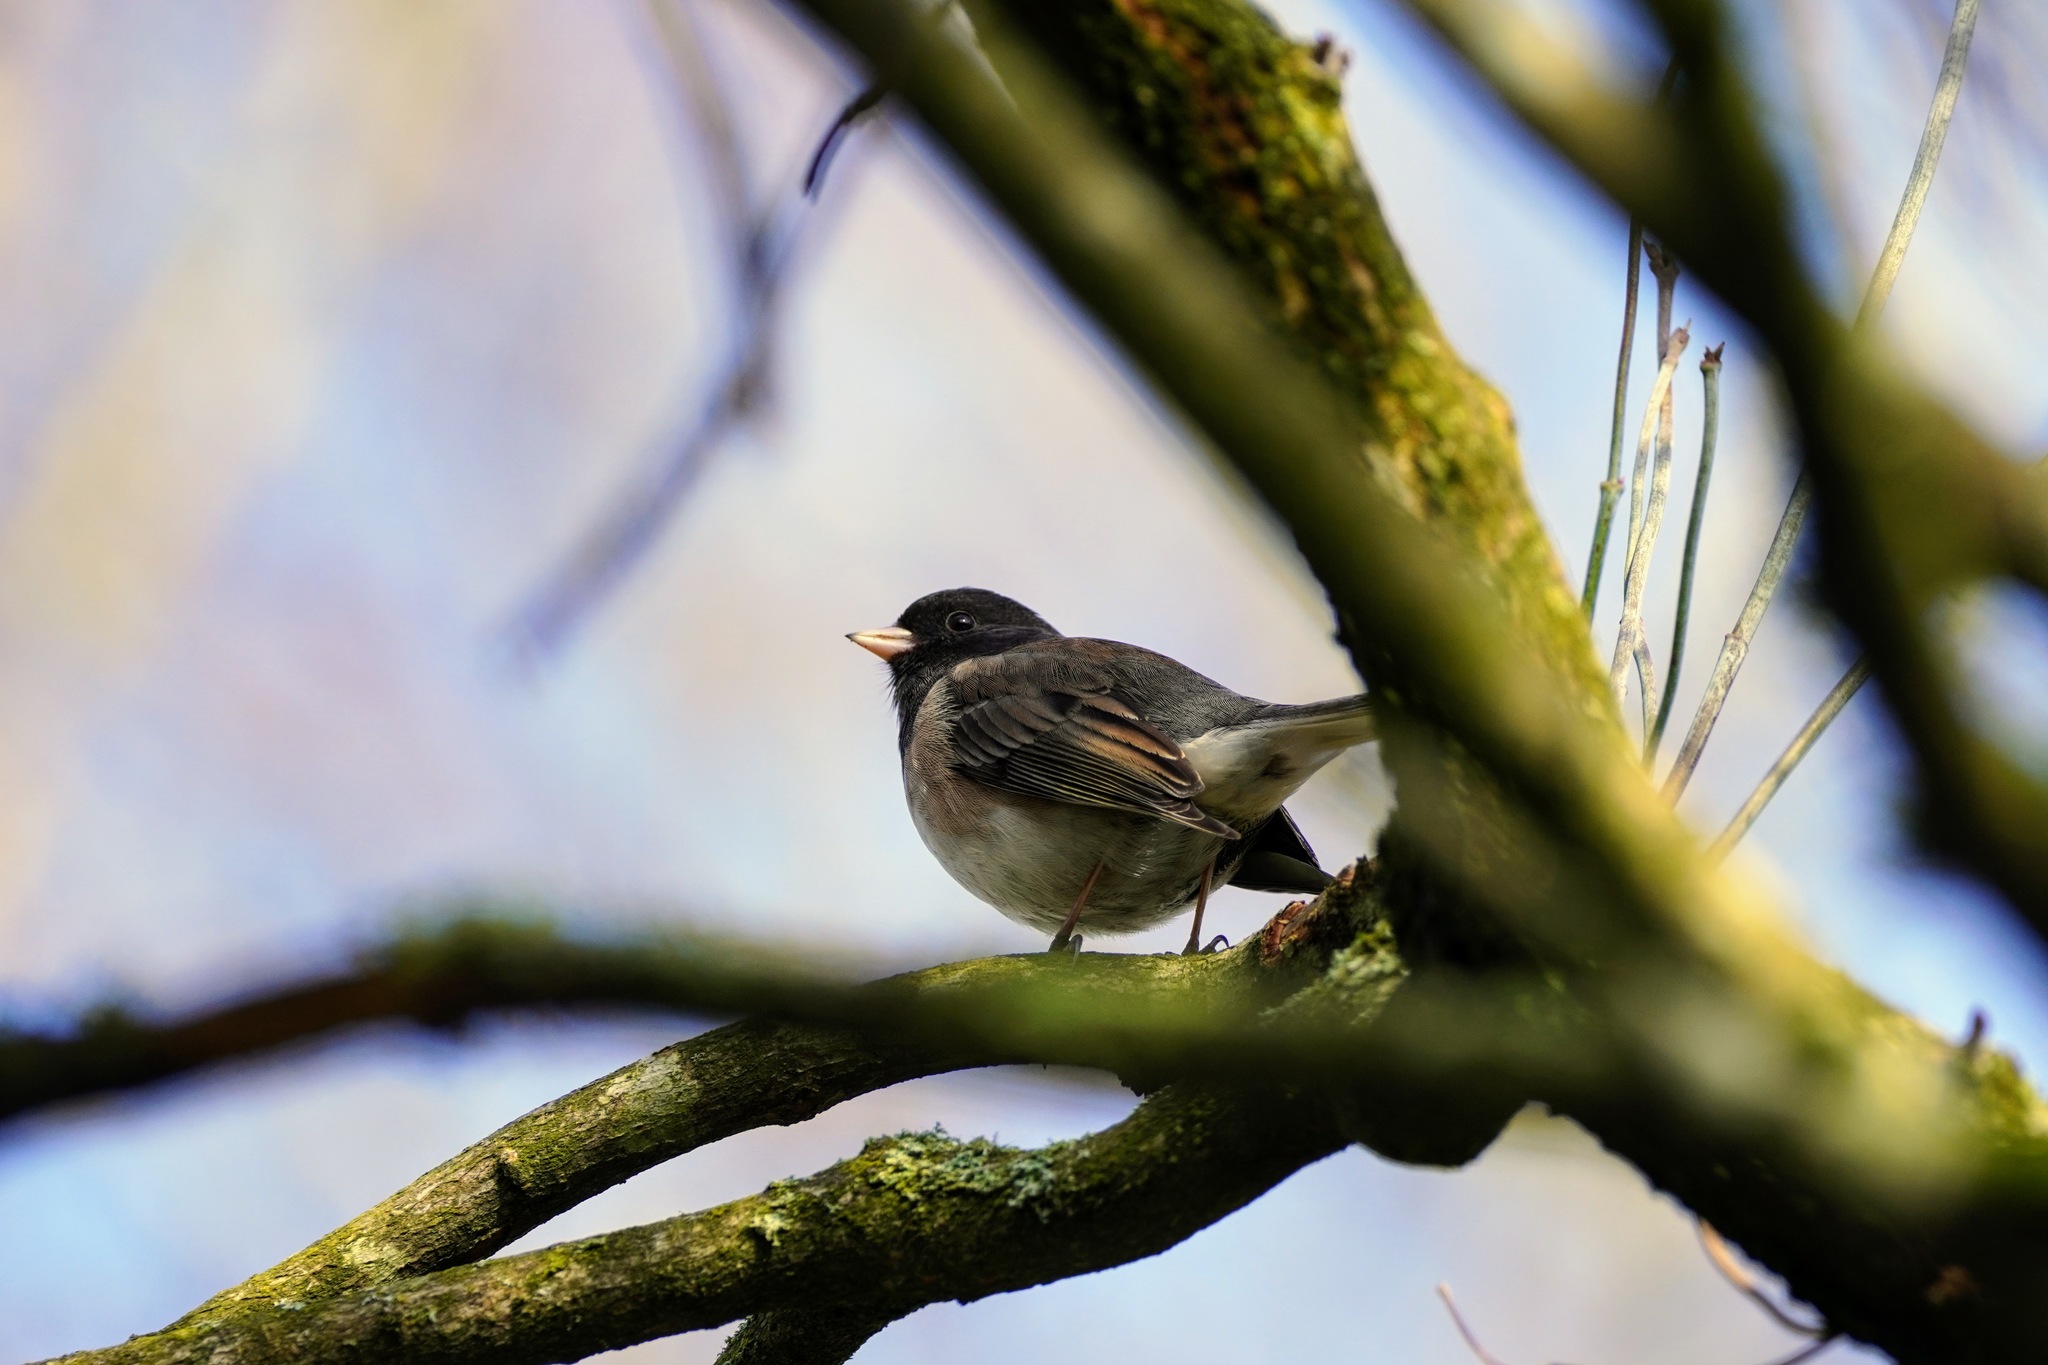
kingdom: Animalia
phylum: Chordata
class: Aves
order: Passeriformes
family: Passerellidae
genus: Junco
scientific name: Junco hyemalis
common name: Dark-eyed junco
